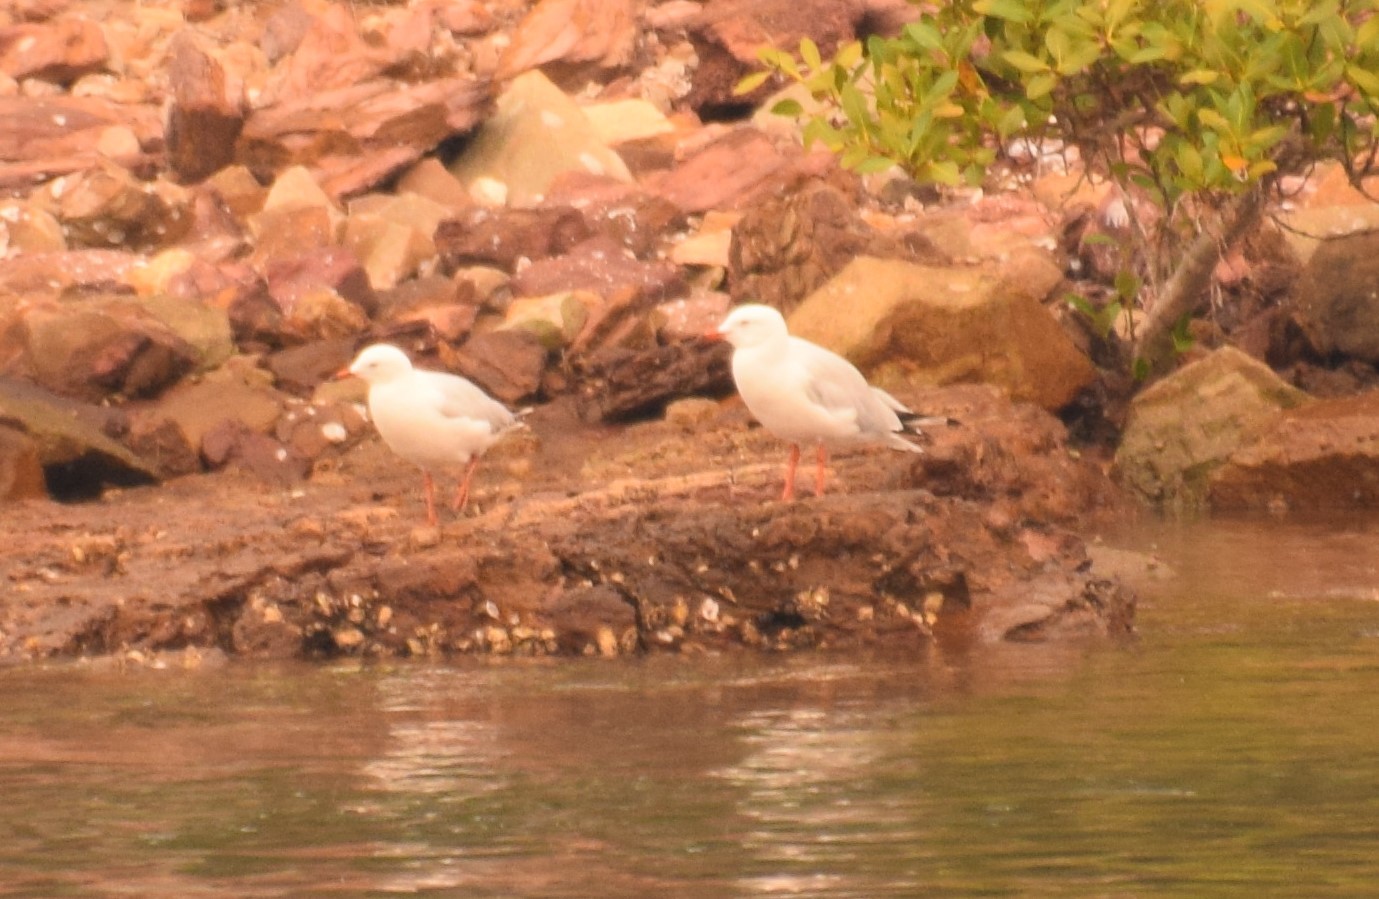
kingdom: Animalia
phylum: Chordata
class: Aves
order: Charadriiformes
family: Laridae
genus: Chroicocephalus
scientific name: Chroicocephalus novaehollandiae
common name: Silver gull
